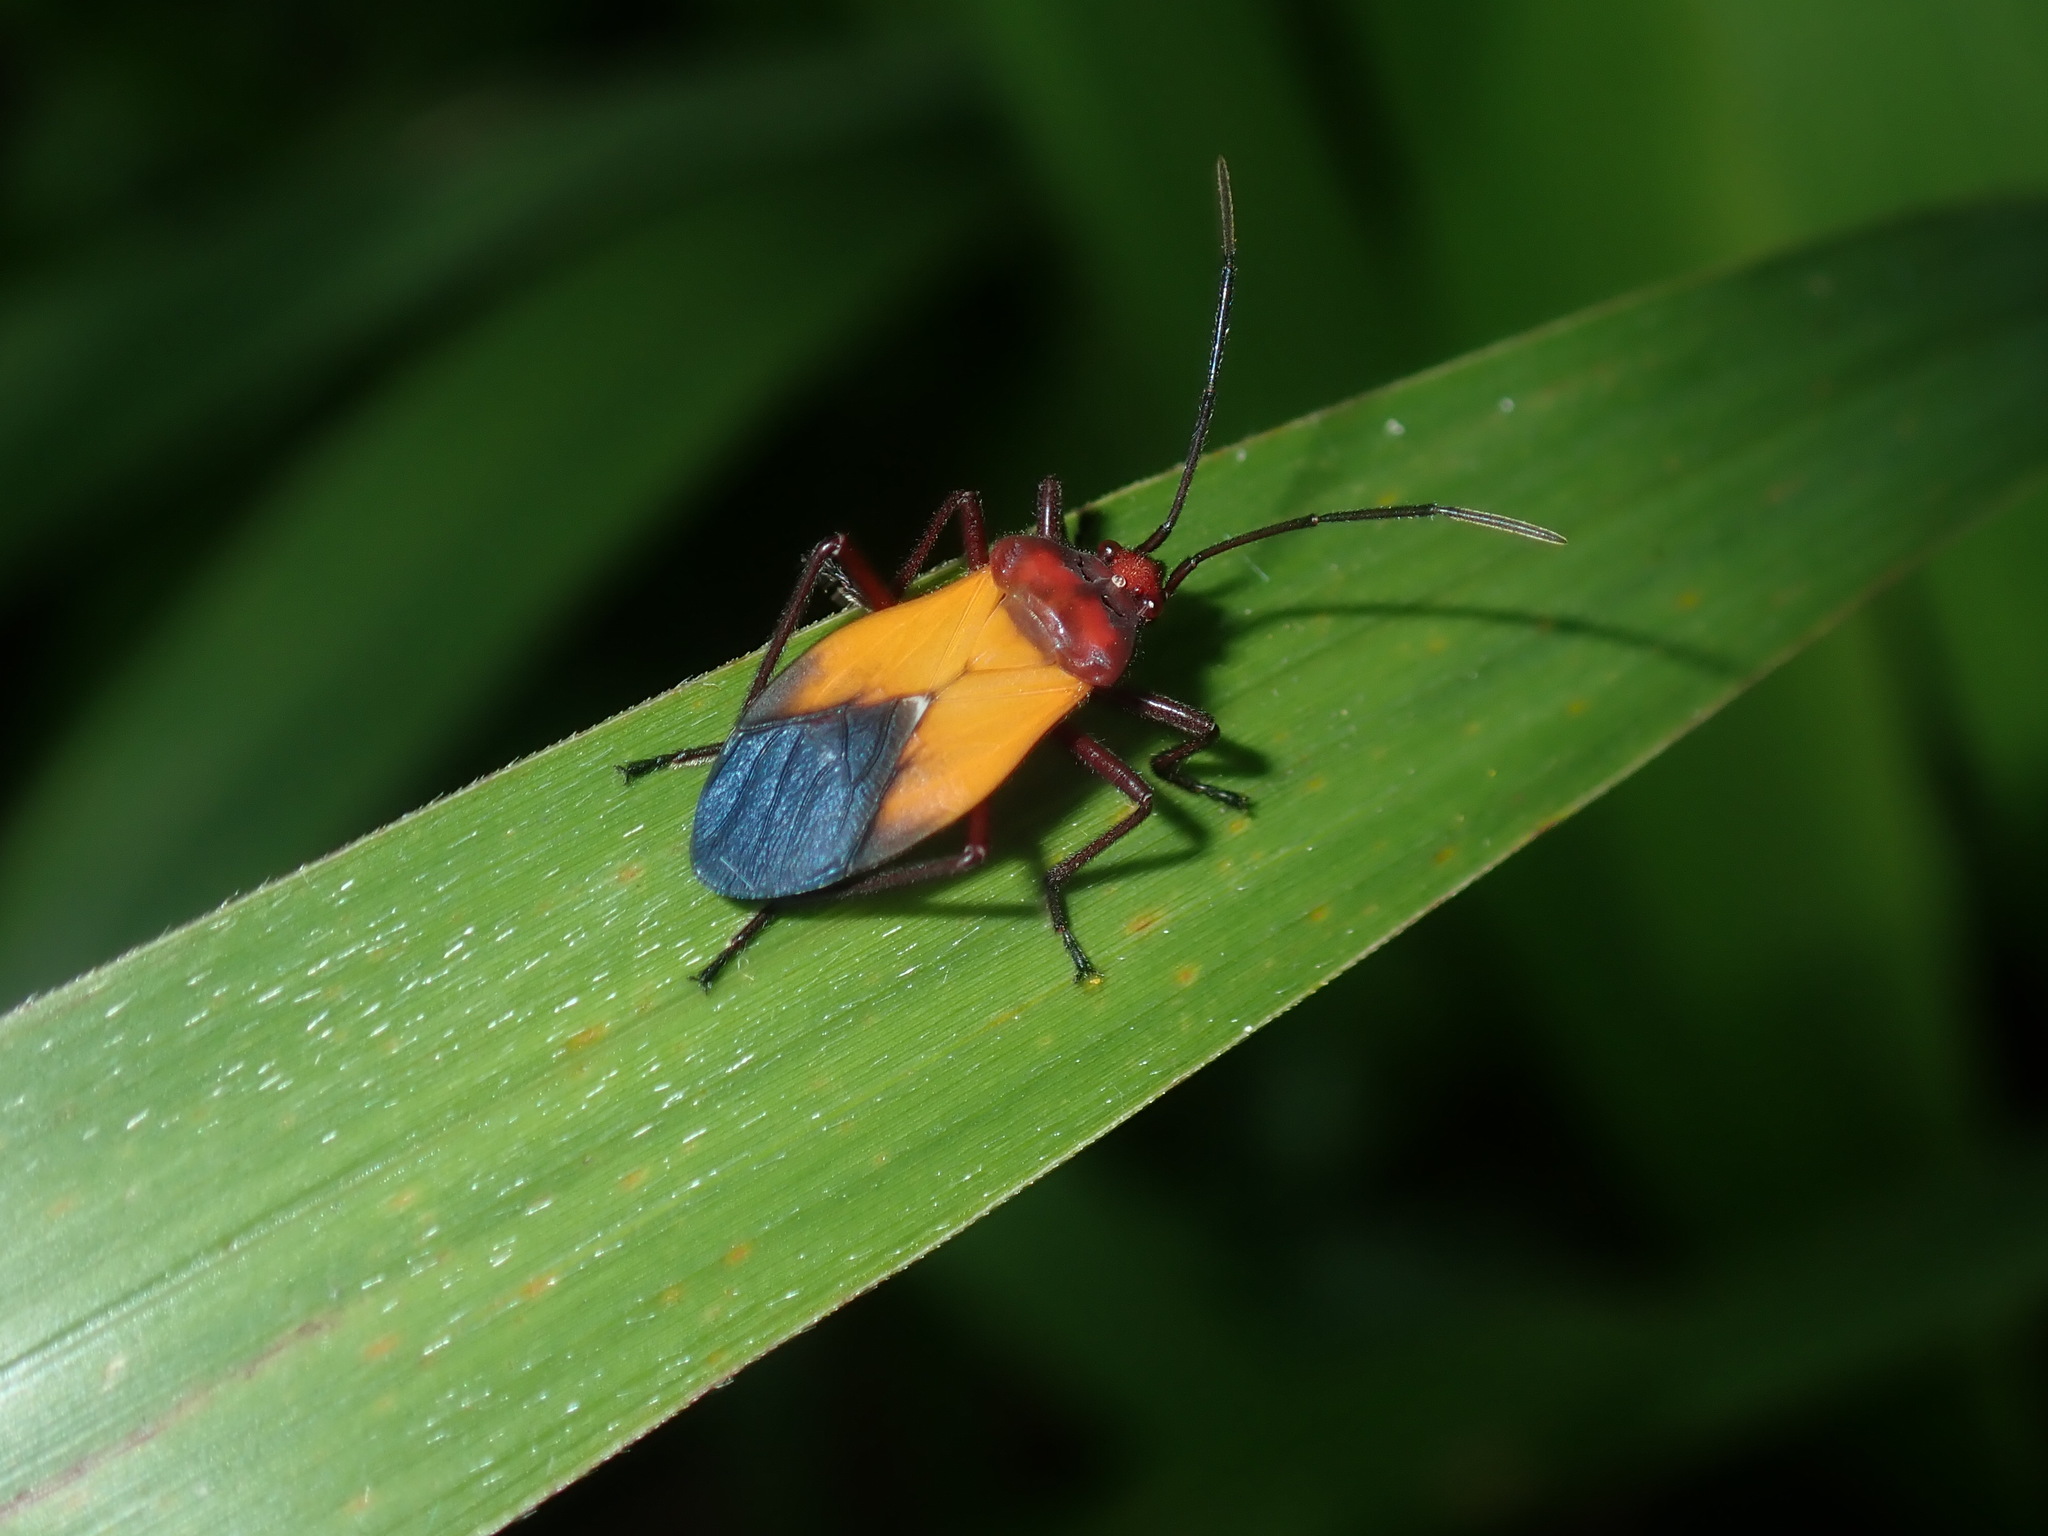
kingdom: Animalia
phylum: Arthropoda
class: Insecta
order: Hemiptera
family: Lygaeidae
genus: Oncopeltus
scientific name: Oncopeltus sordidus
